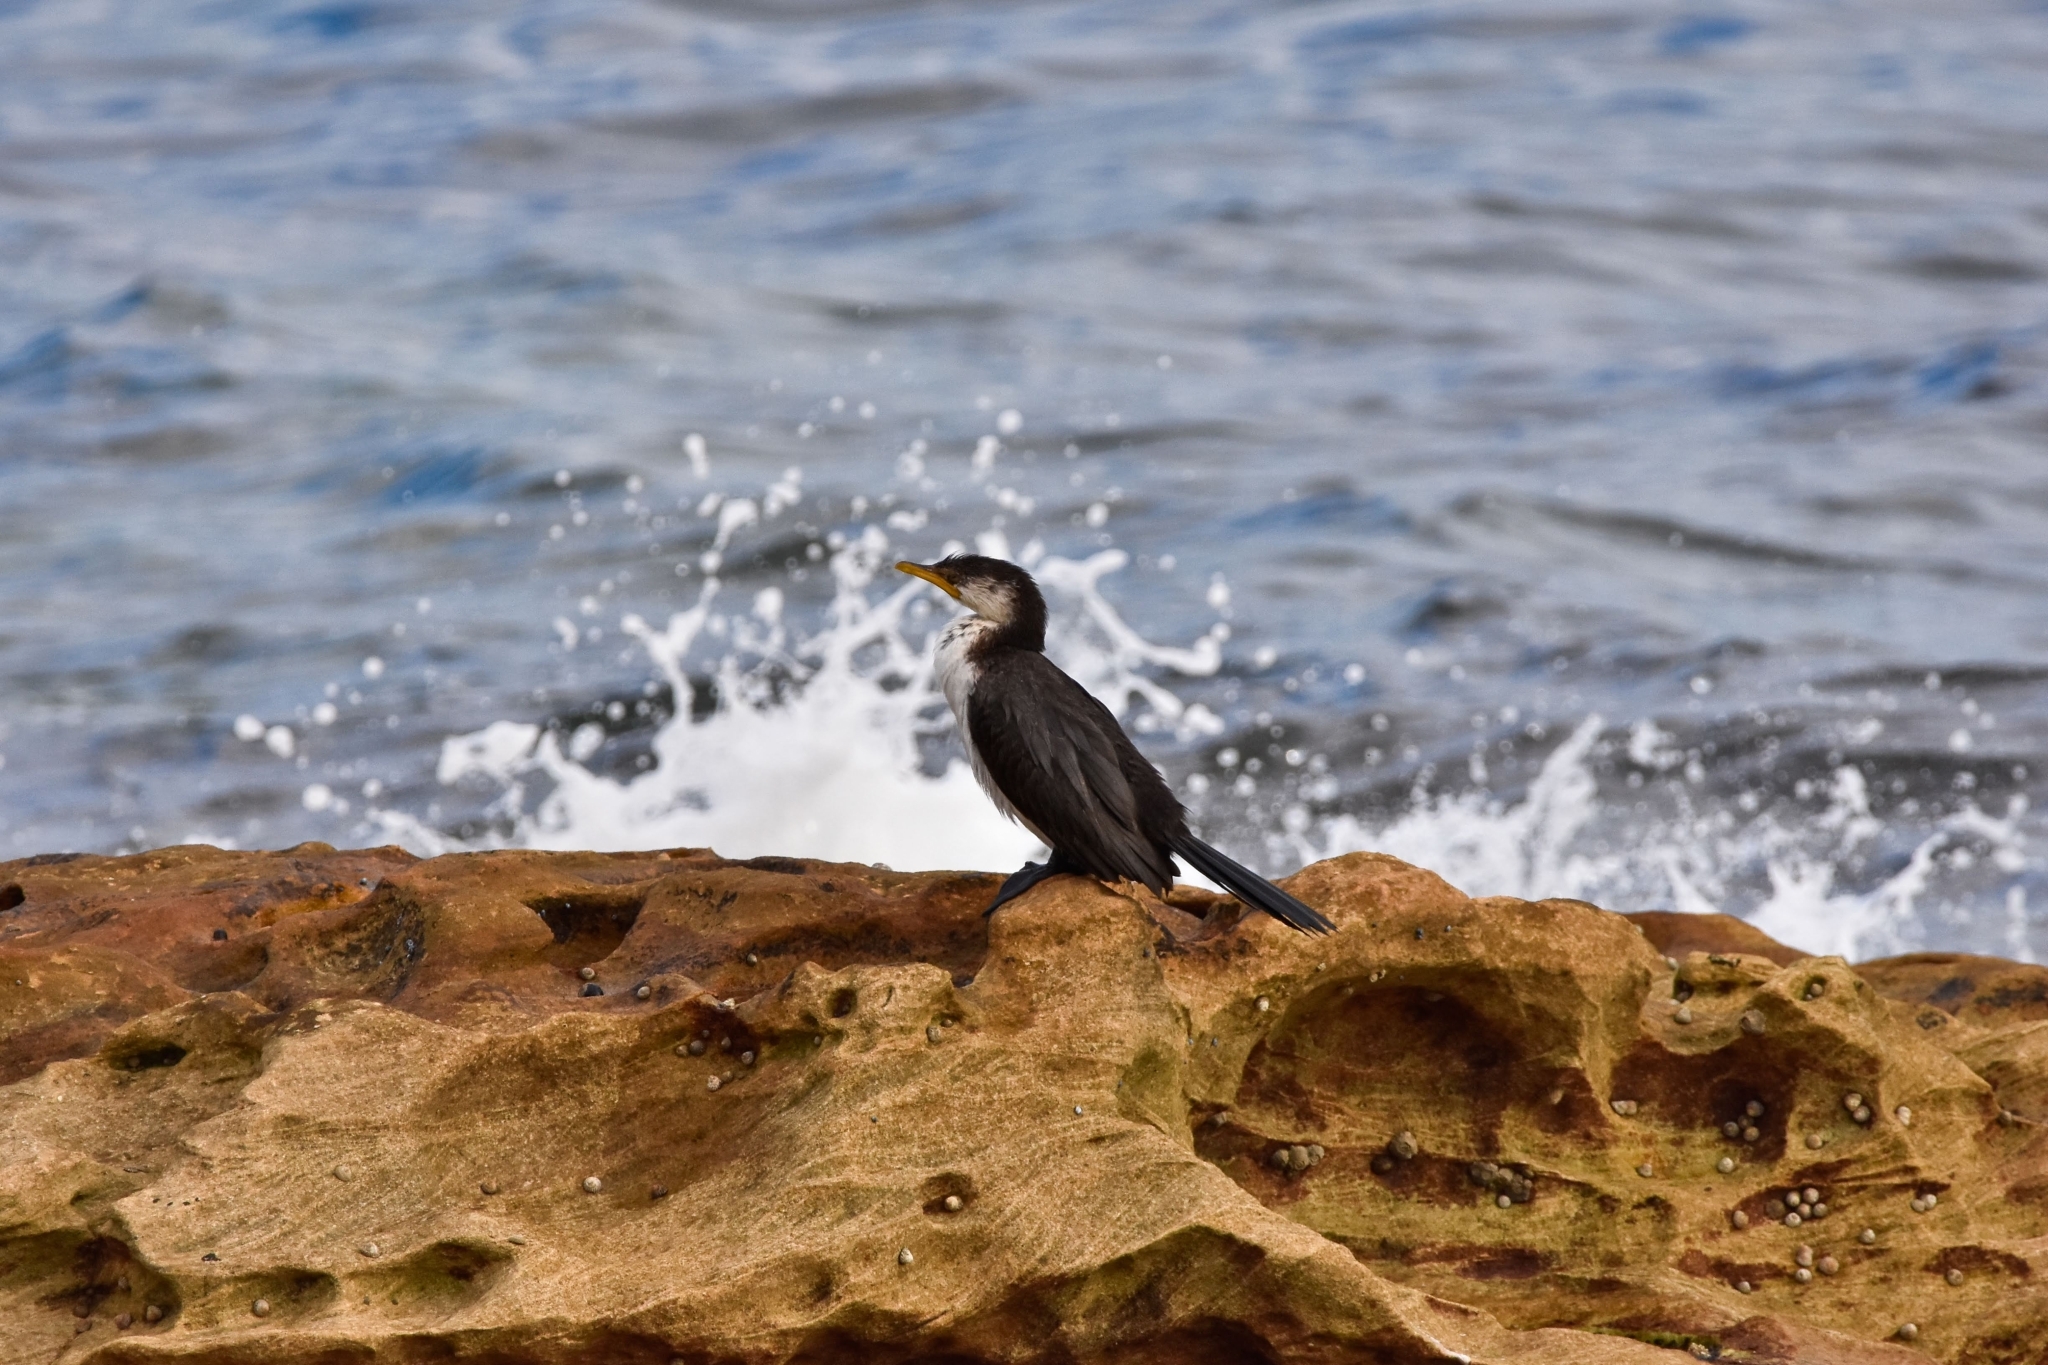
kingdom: Animalia
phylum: Chordata
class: Aves
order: Suliformes
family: Phalacrocoracidae
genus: Microcarbo
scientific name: Microcarbo melanoleucos
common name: Little pied cormorant
